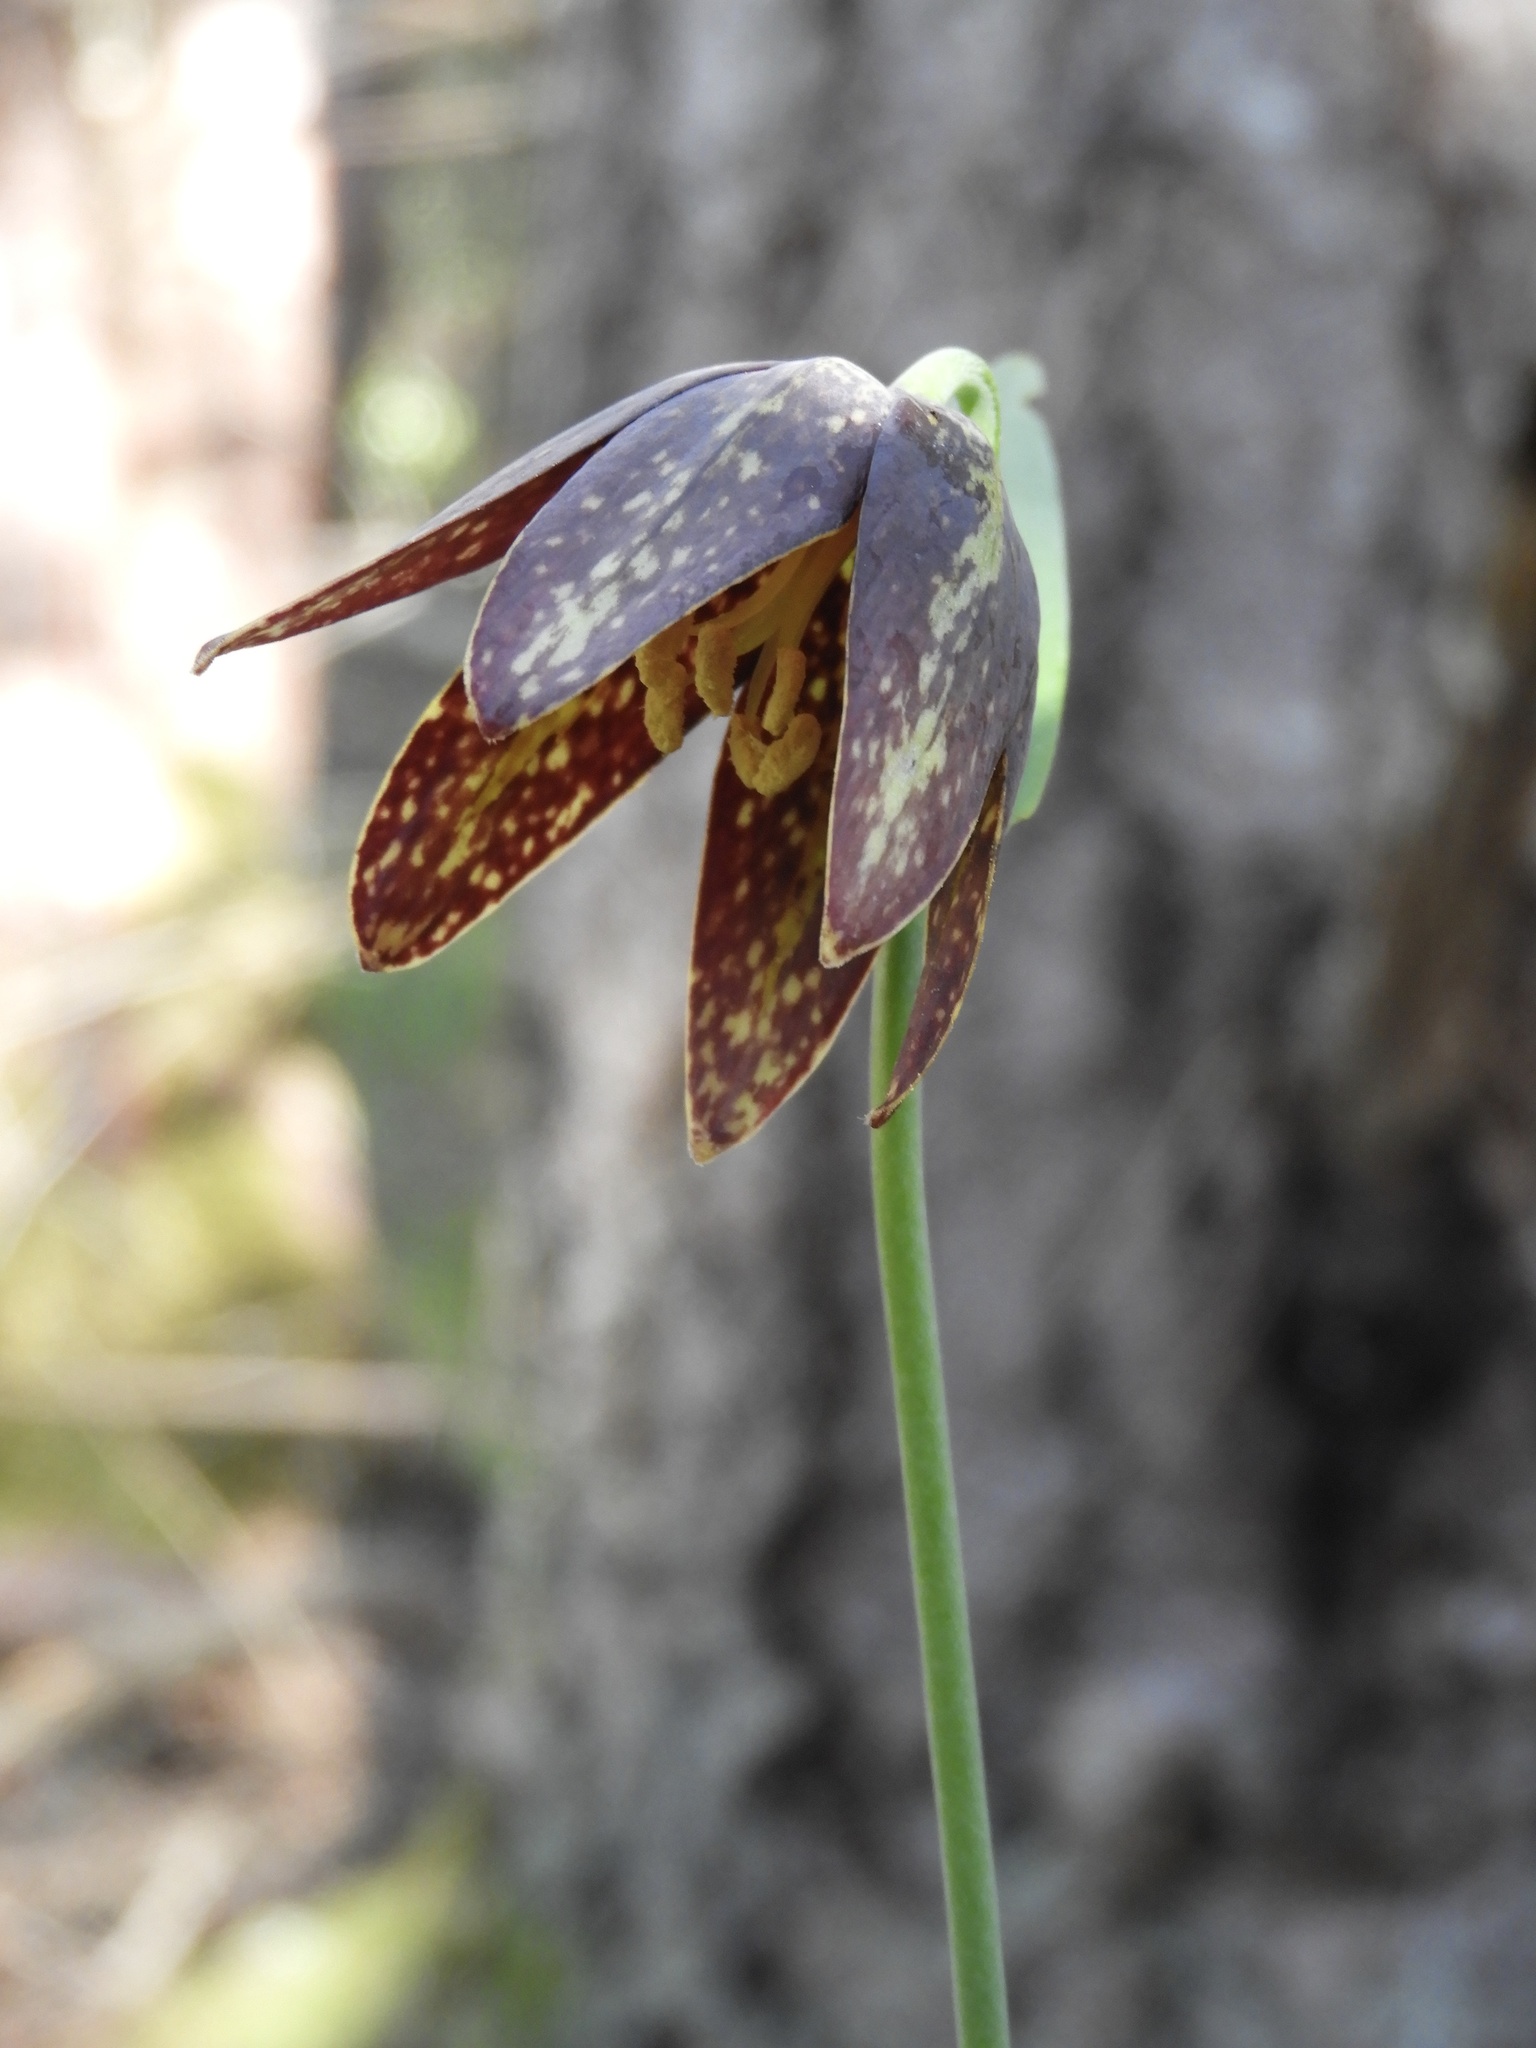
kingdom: Plantae
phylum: Tracheophyta
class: Liliopsida
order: Liliales
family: Liliaceae
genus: Fritillaria
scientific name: Fritillaria affinis
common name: Ojai fritillary
